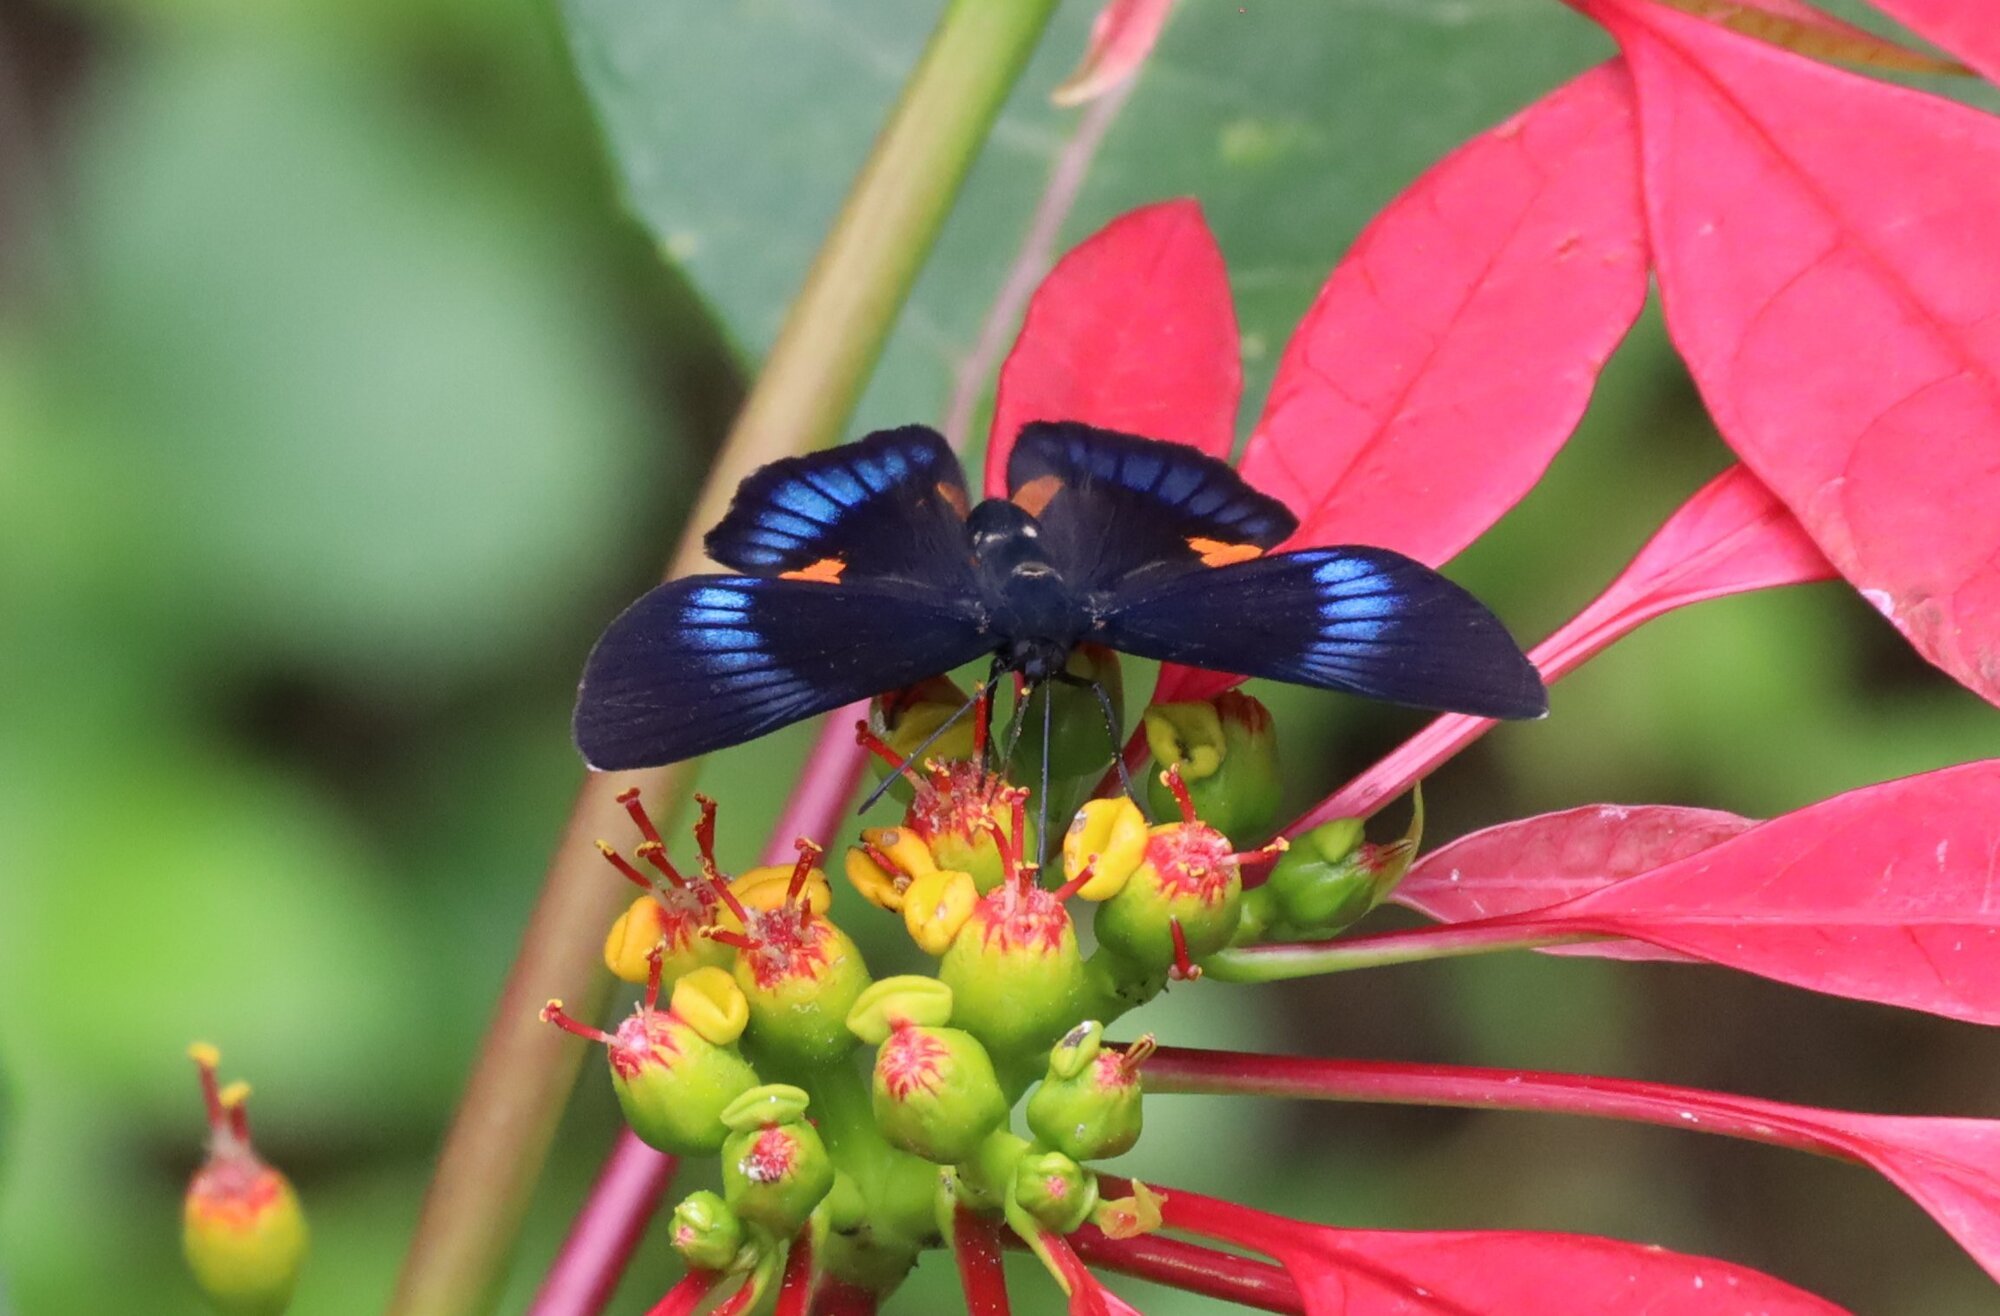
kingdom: Animalia
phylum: Arthropoda
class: Insecta
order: Lepidoptera
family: Lycaenidae
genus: Necyria
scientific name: Necyria bellona
